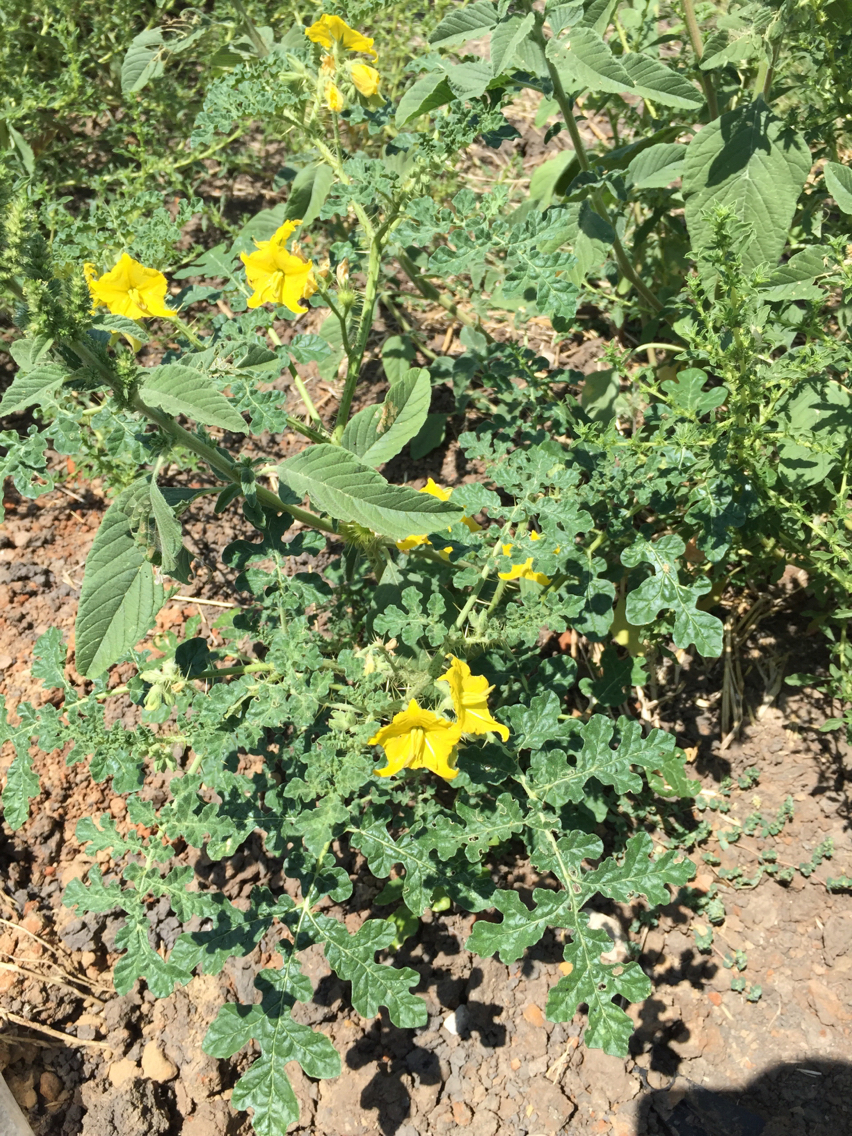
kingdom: Plantae
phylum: Tracheophyta
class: Magnoliopsida
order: Solanales
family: Solanaceae
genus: Solanum
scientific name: Solanum angustifolium
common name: Buffalobur nightshade
